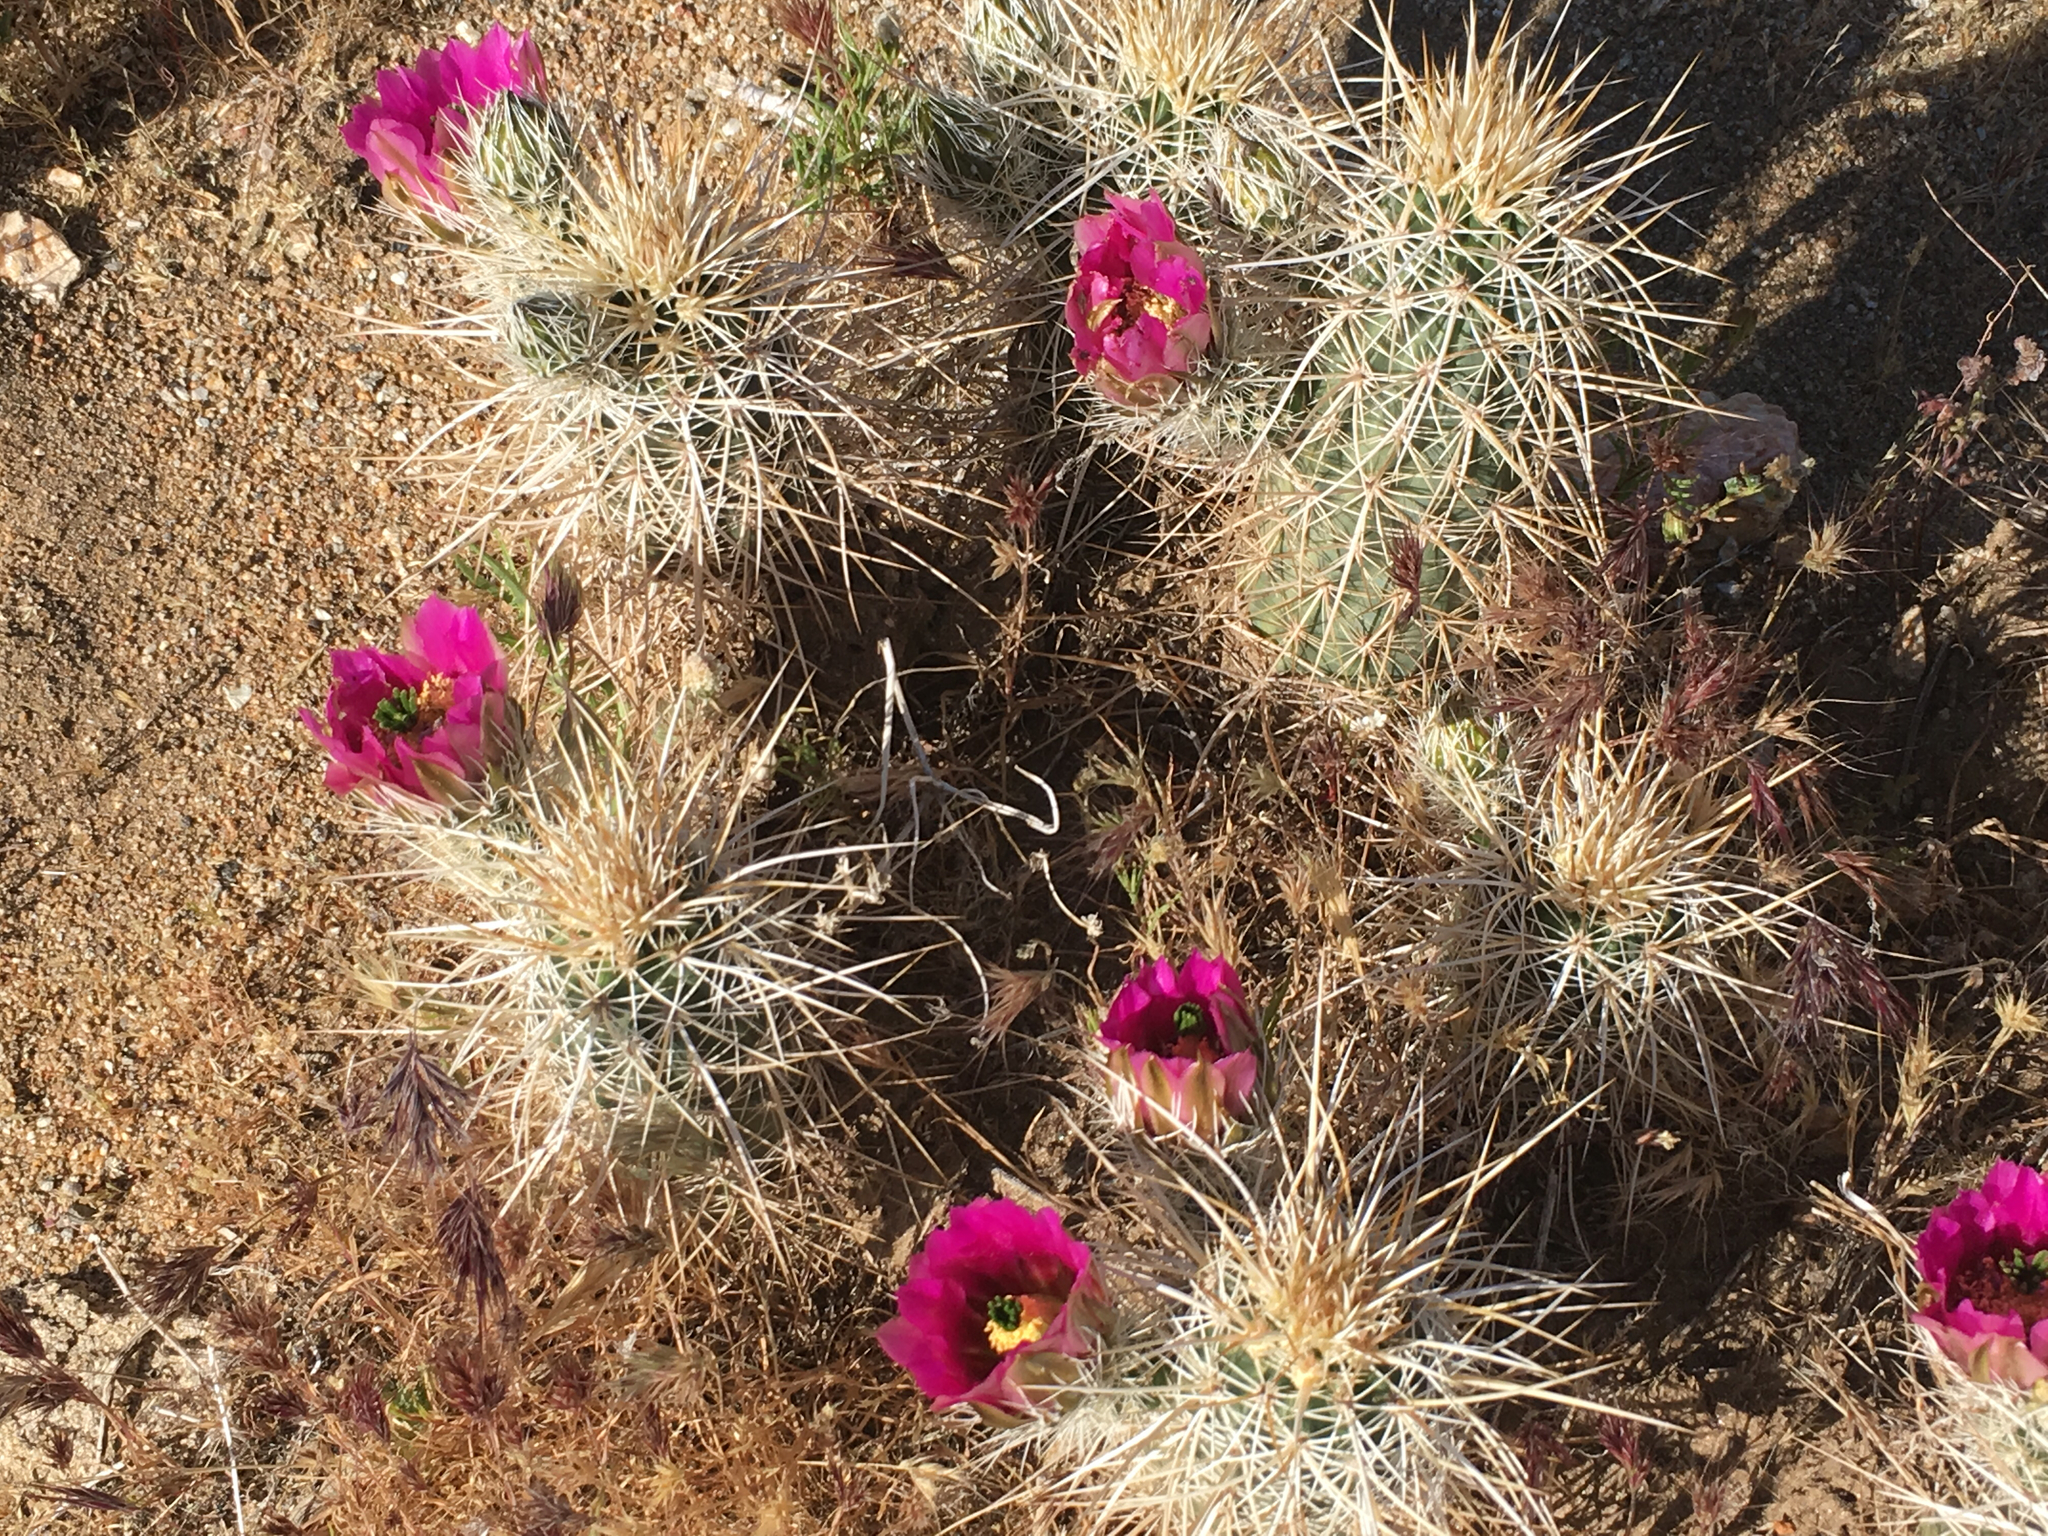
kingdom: Plantae
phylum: Tracheophyta
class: Magnoliopsida
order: Caryophyllales
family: Cactaceae
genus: Echinocereus
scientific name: Echinocereus engelmannii
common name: Engelmann's hedgehog cactus
